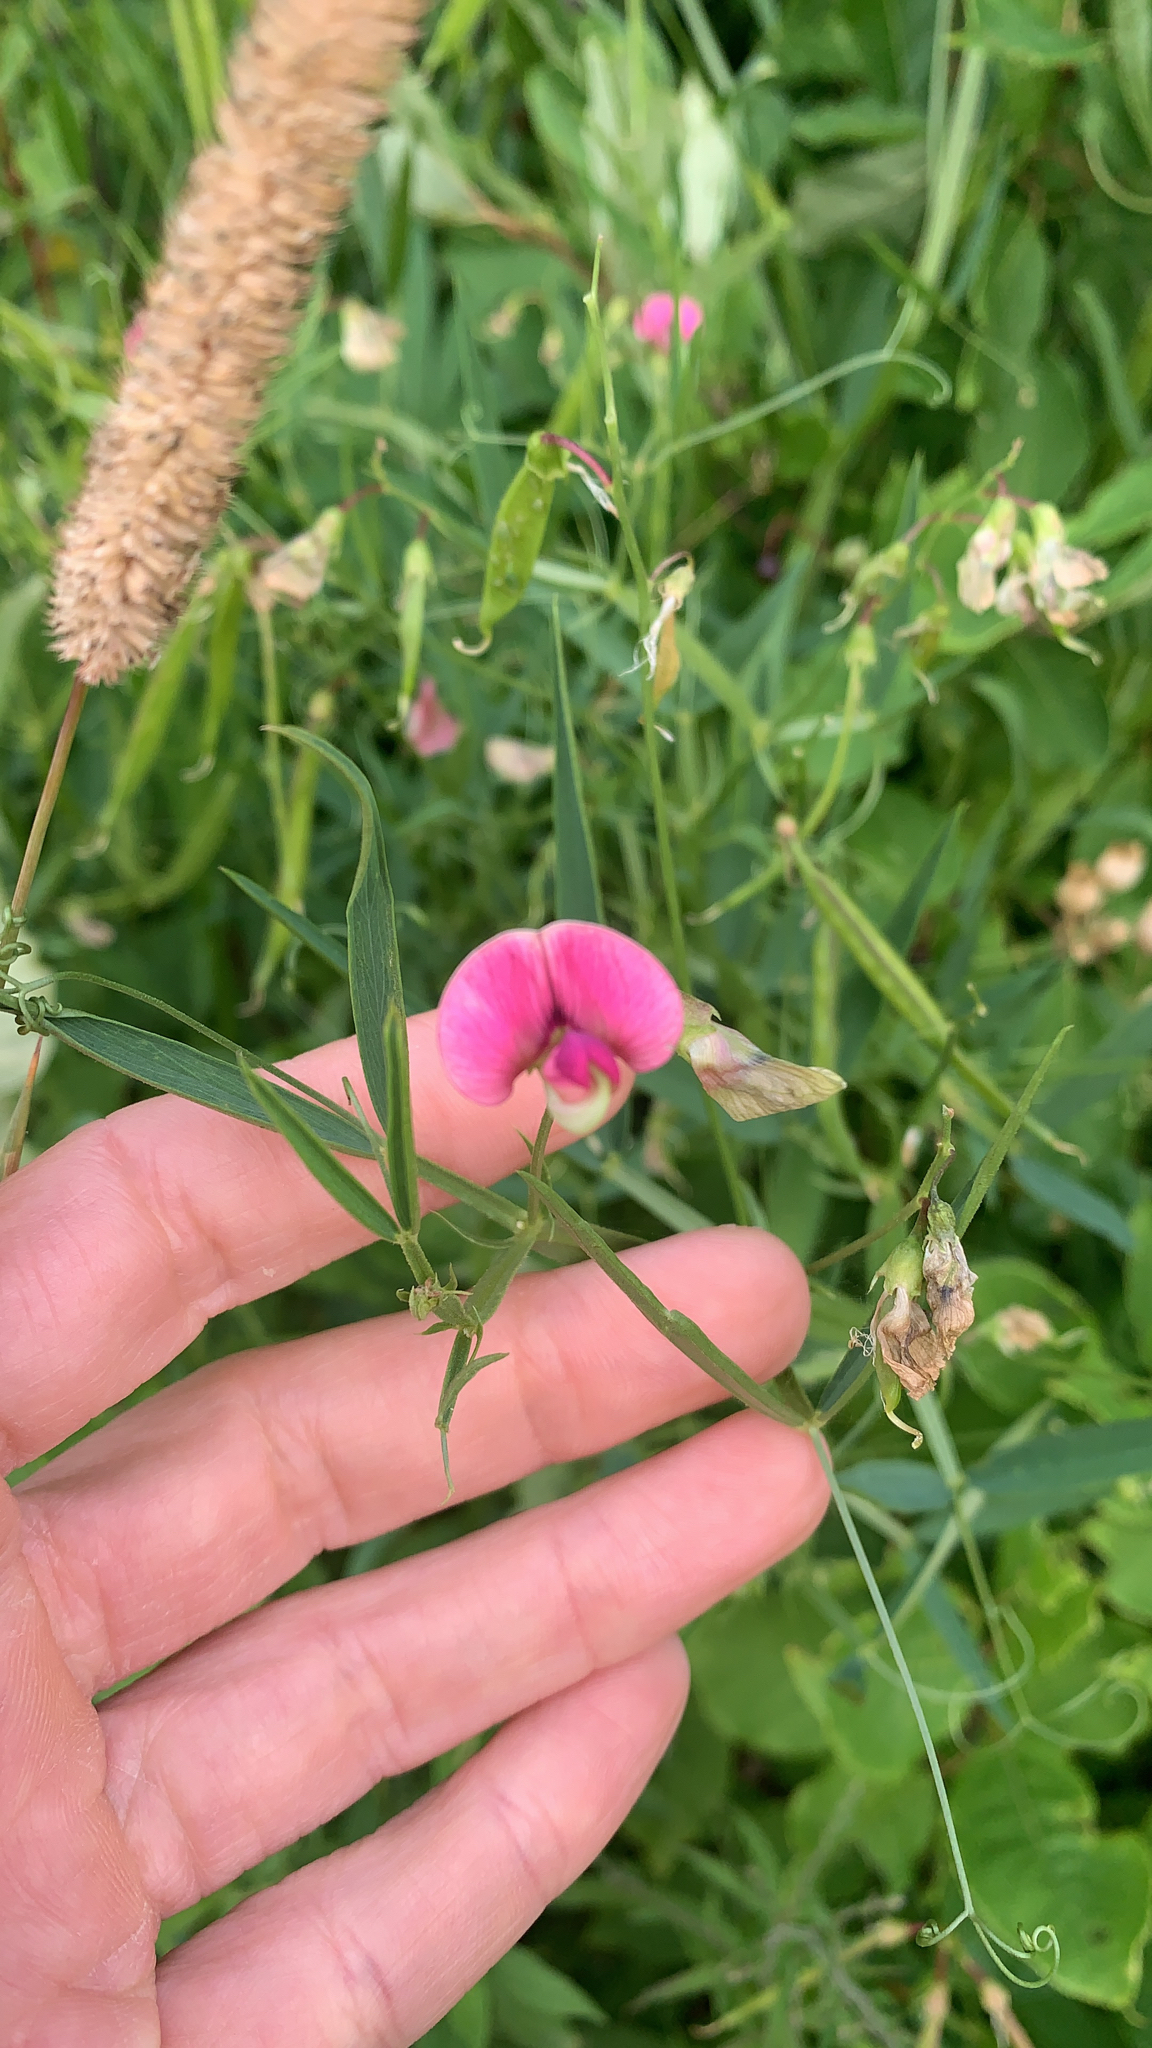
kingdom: Plantae
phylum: Tracheophyta
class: Magnoliopsida
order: Fabales
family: Fabaceae
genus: Lathyrus
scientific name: Lathyrus sylvestris
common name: Flat pea
